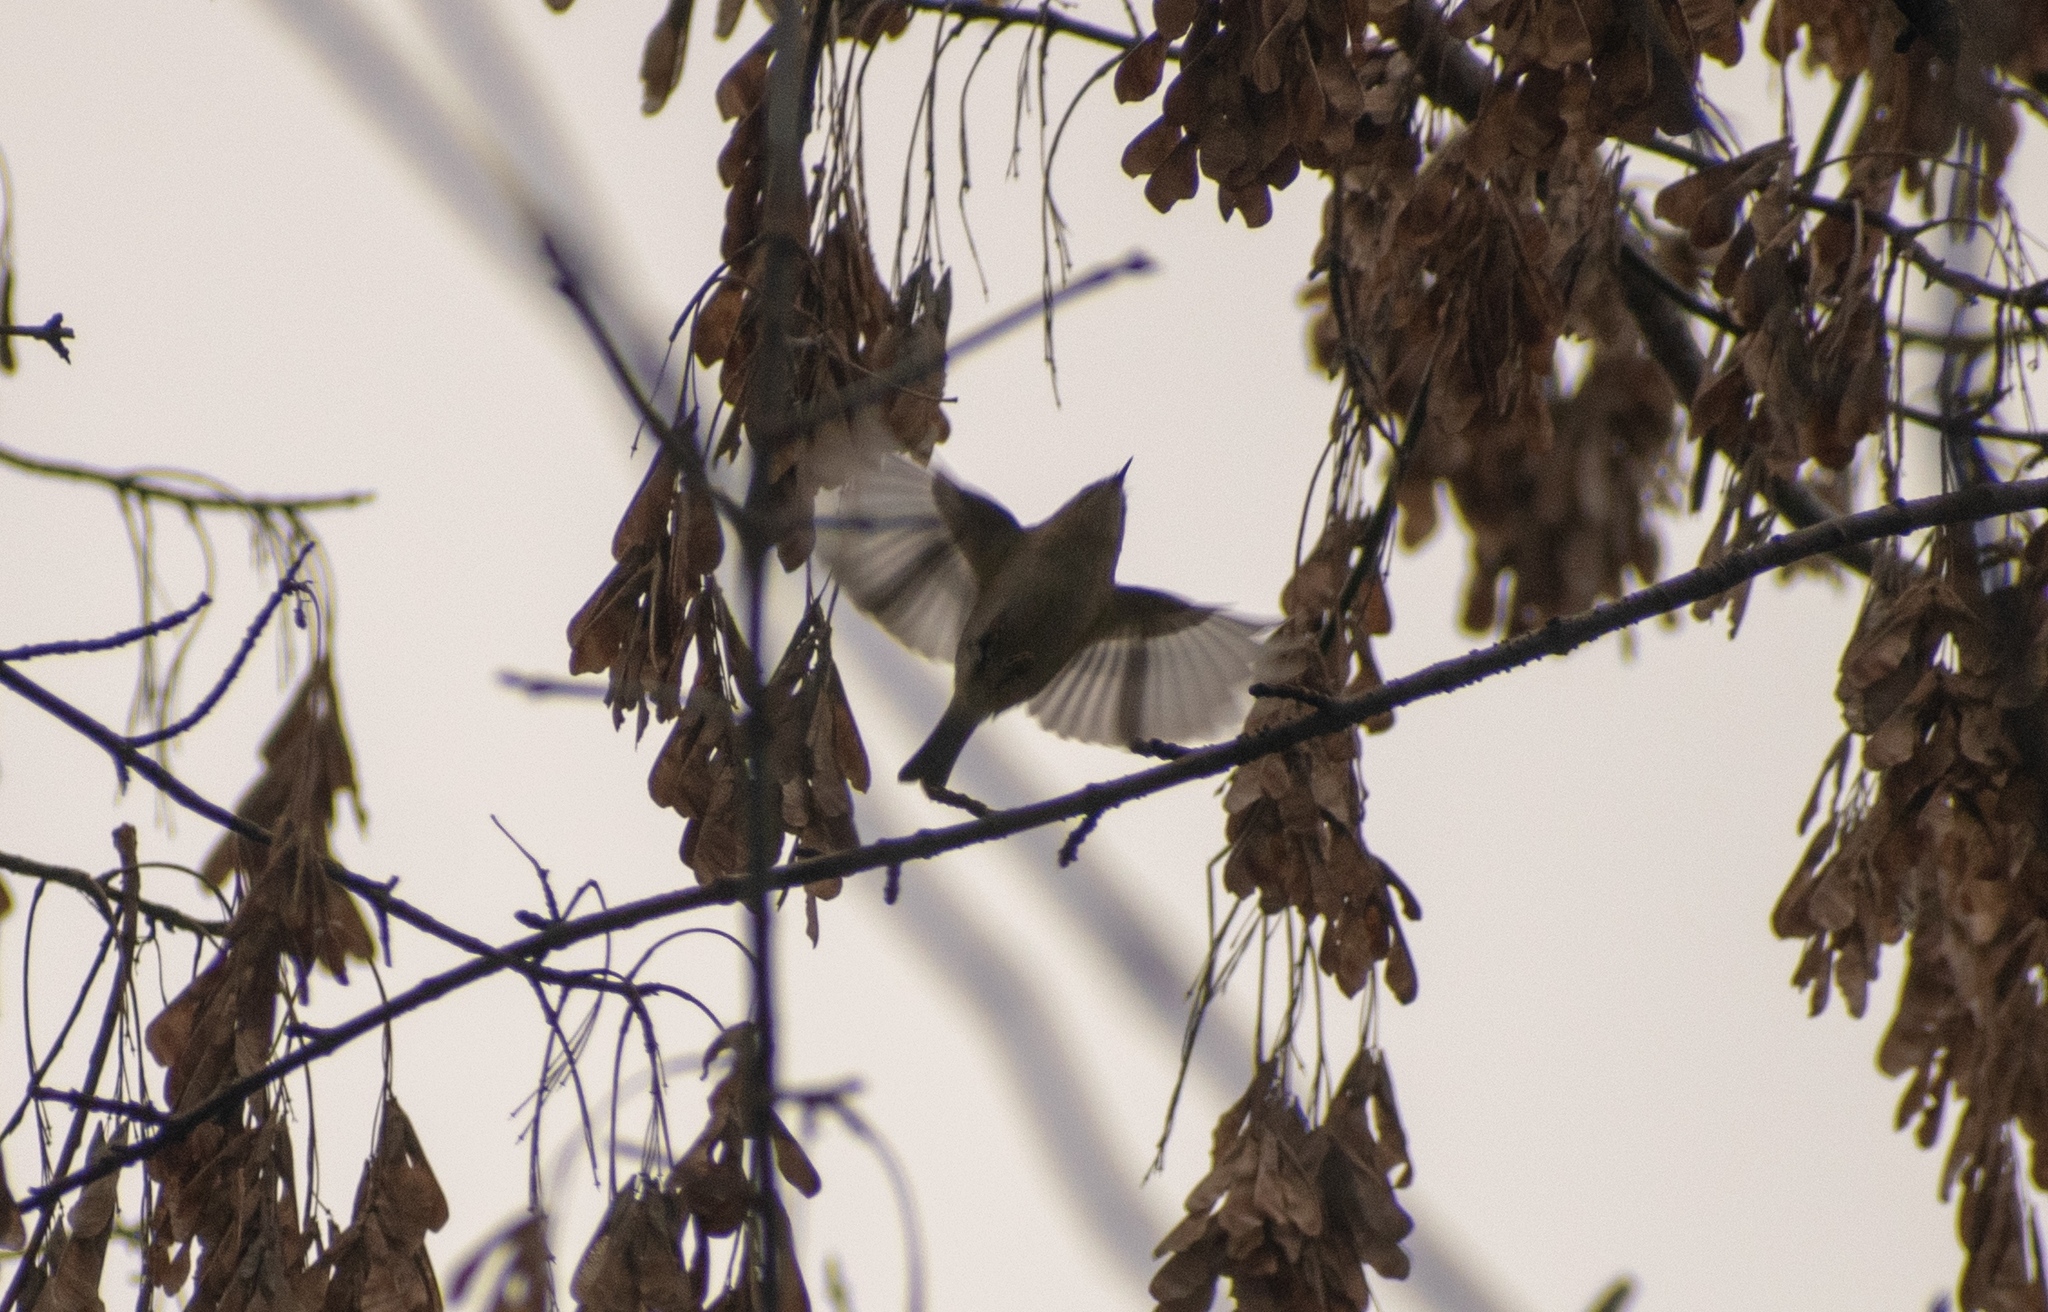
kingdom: Animalia
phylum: Chordata
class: Aves
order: Passeriformes
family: Regulidae
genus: Regulus
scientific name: Regulus regulus
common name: Goldcrest
